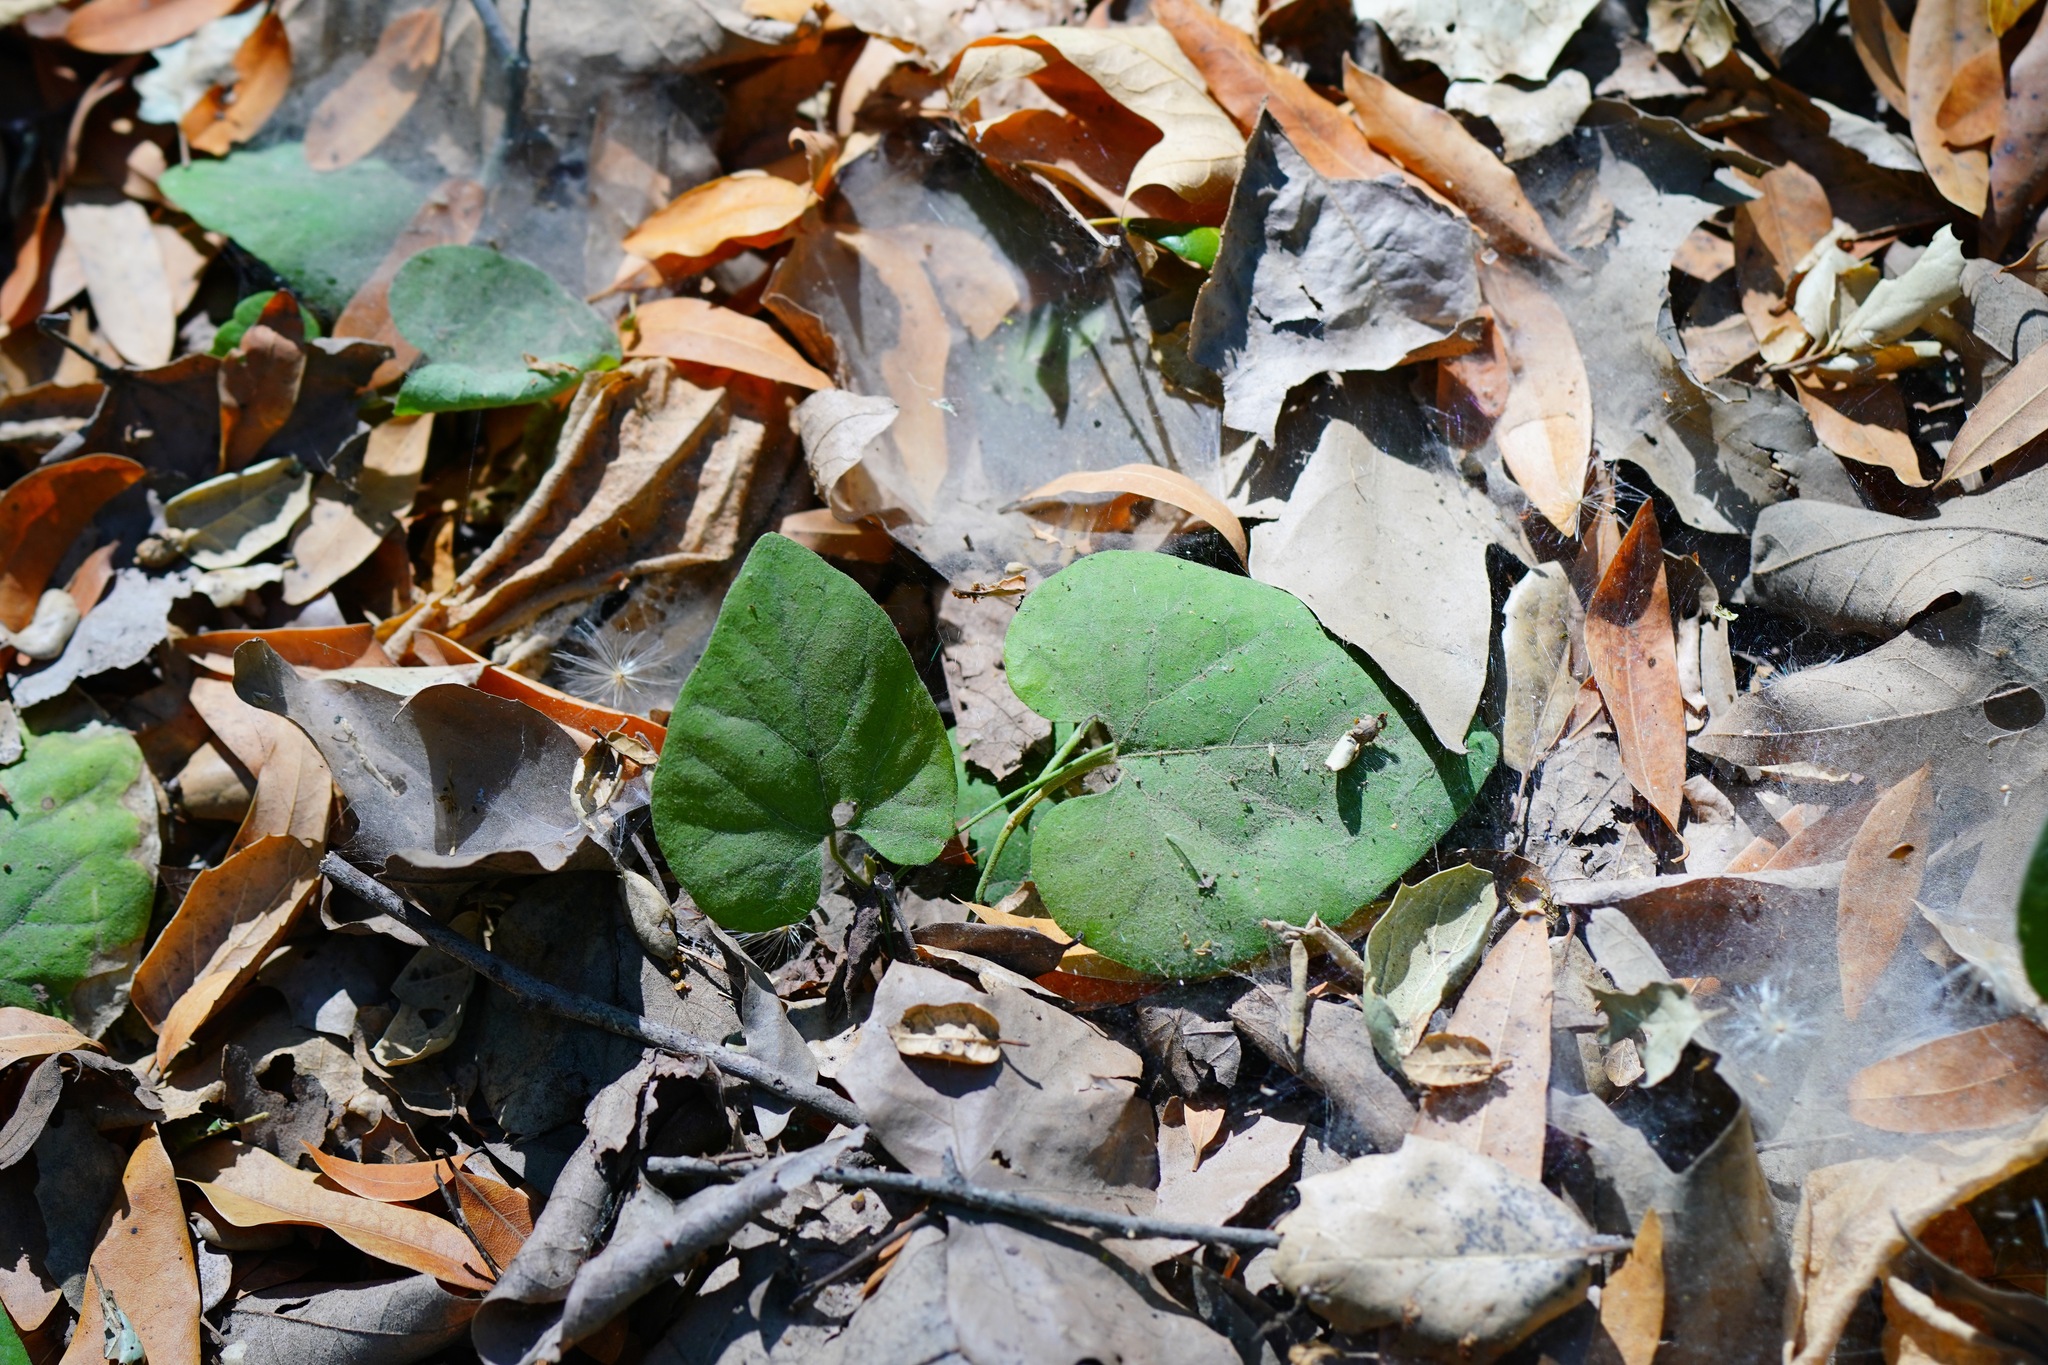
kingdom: Plantae
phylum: Tracheophyta
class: Magnoliopsida
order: Piperales
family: Aristolochiaceae
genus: Isotrema
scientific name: Isotrema californicum
